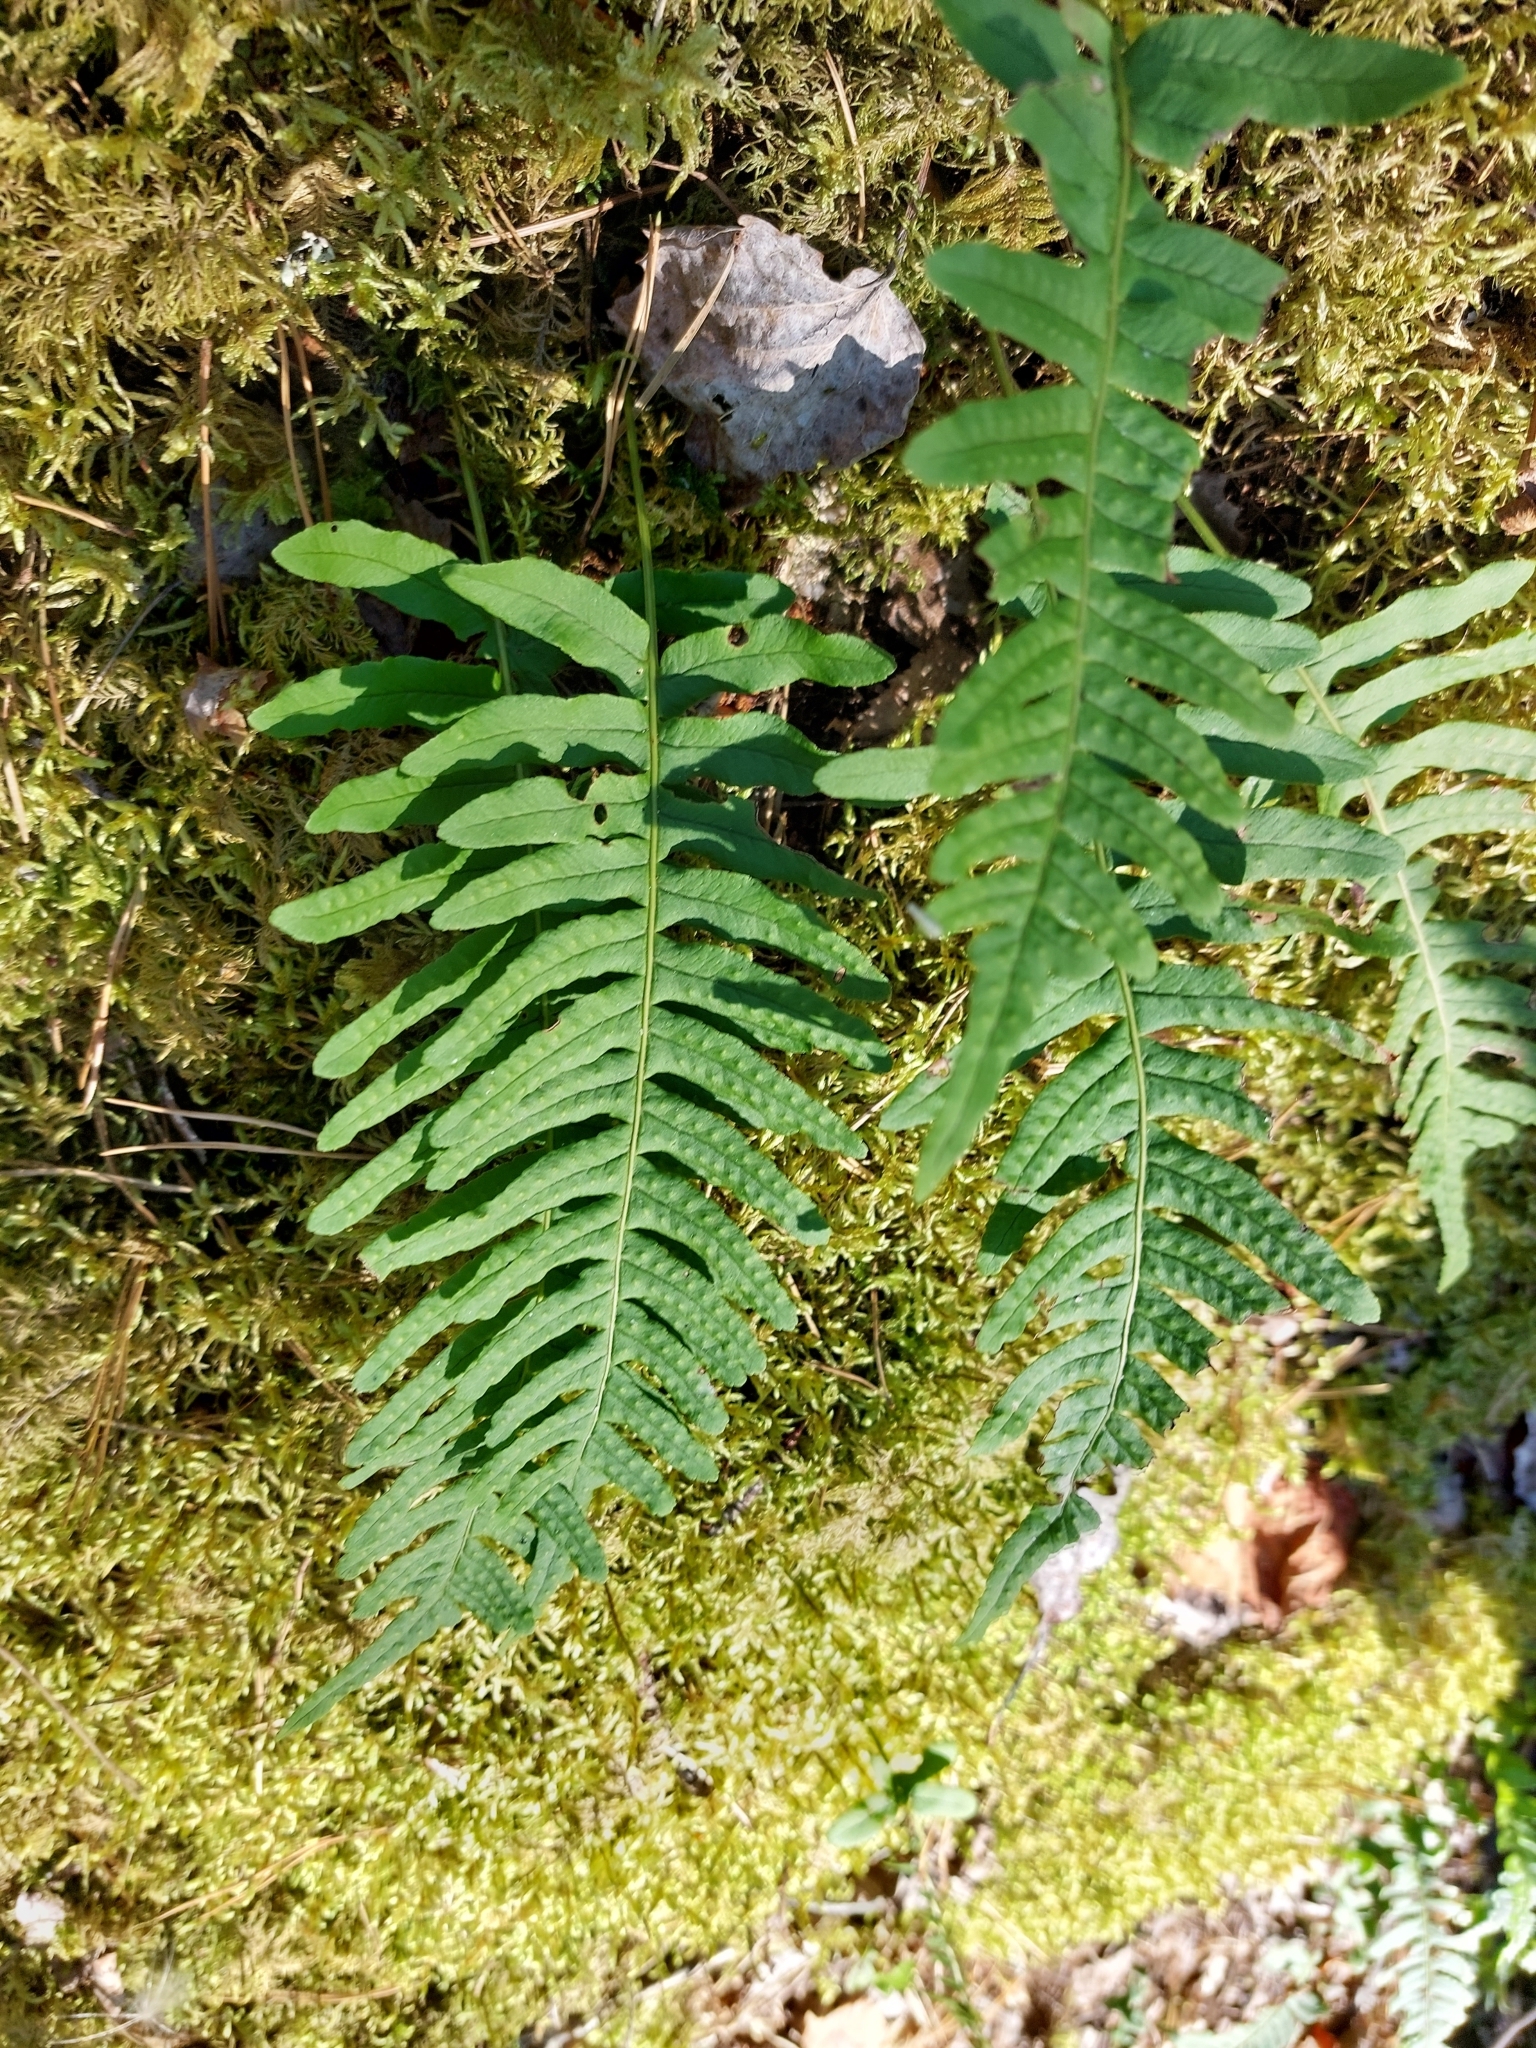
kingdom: Plantae
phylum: Tracheophyta
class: Polypodiopsida
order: Polypodiales
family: Polypodiaceae
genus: Polypodium
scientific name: Polypodium vulgare
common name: Common polypody
